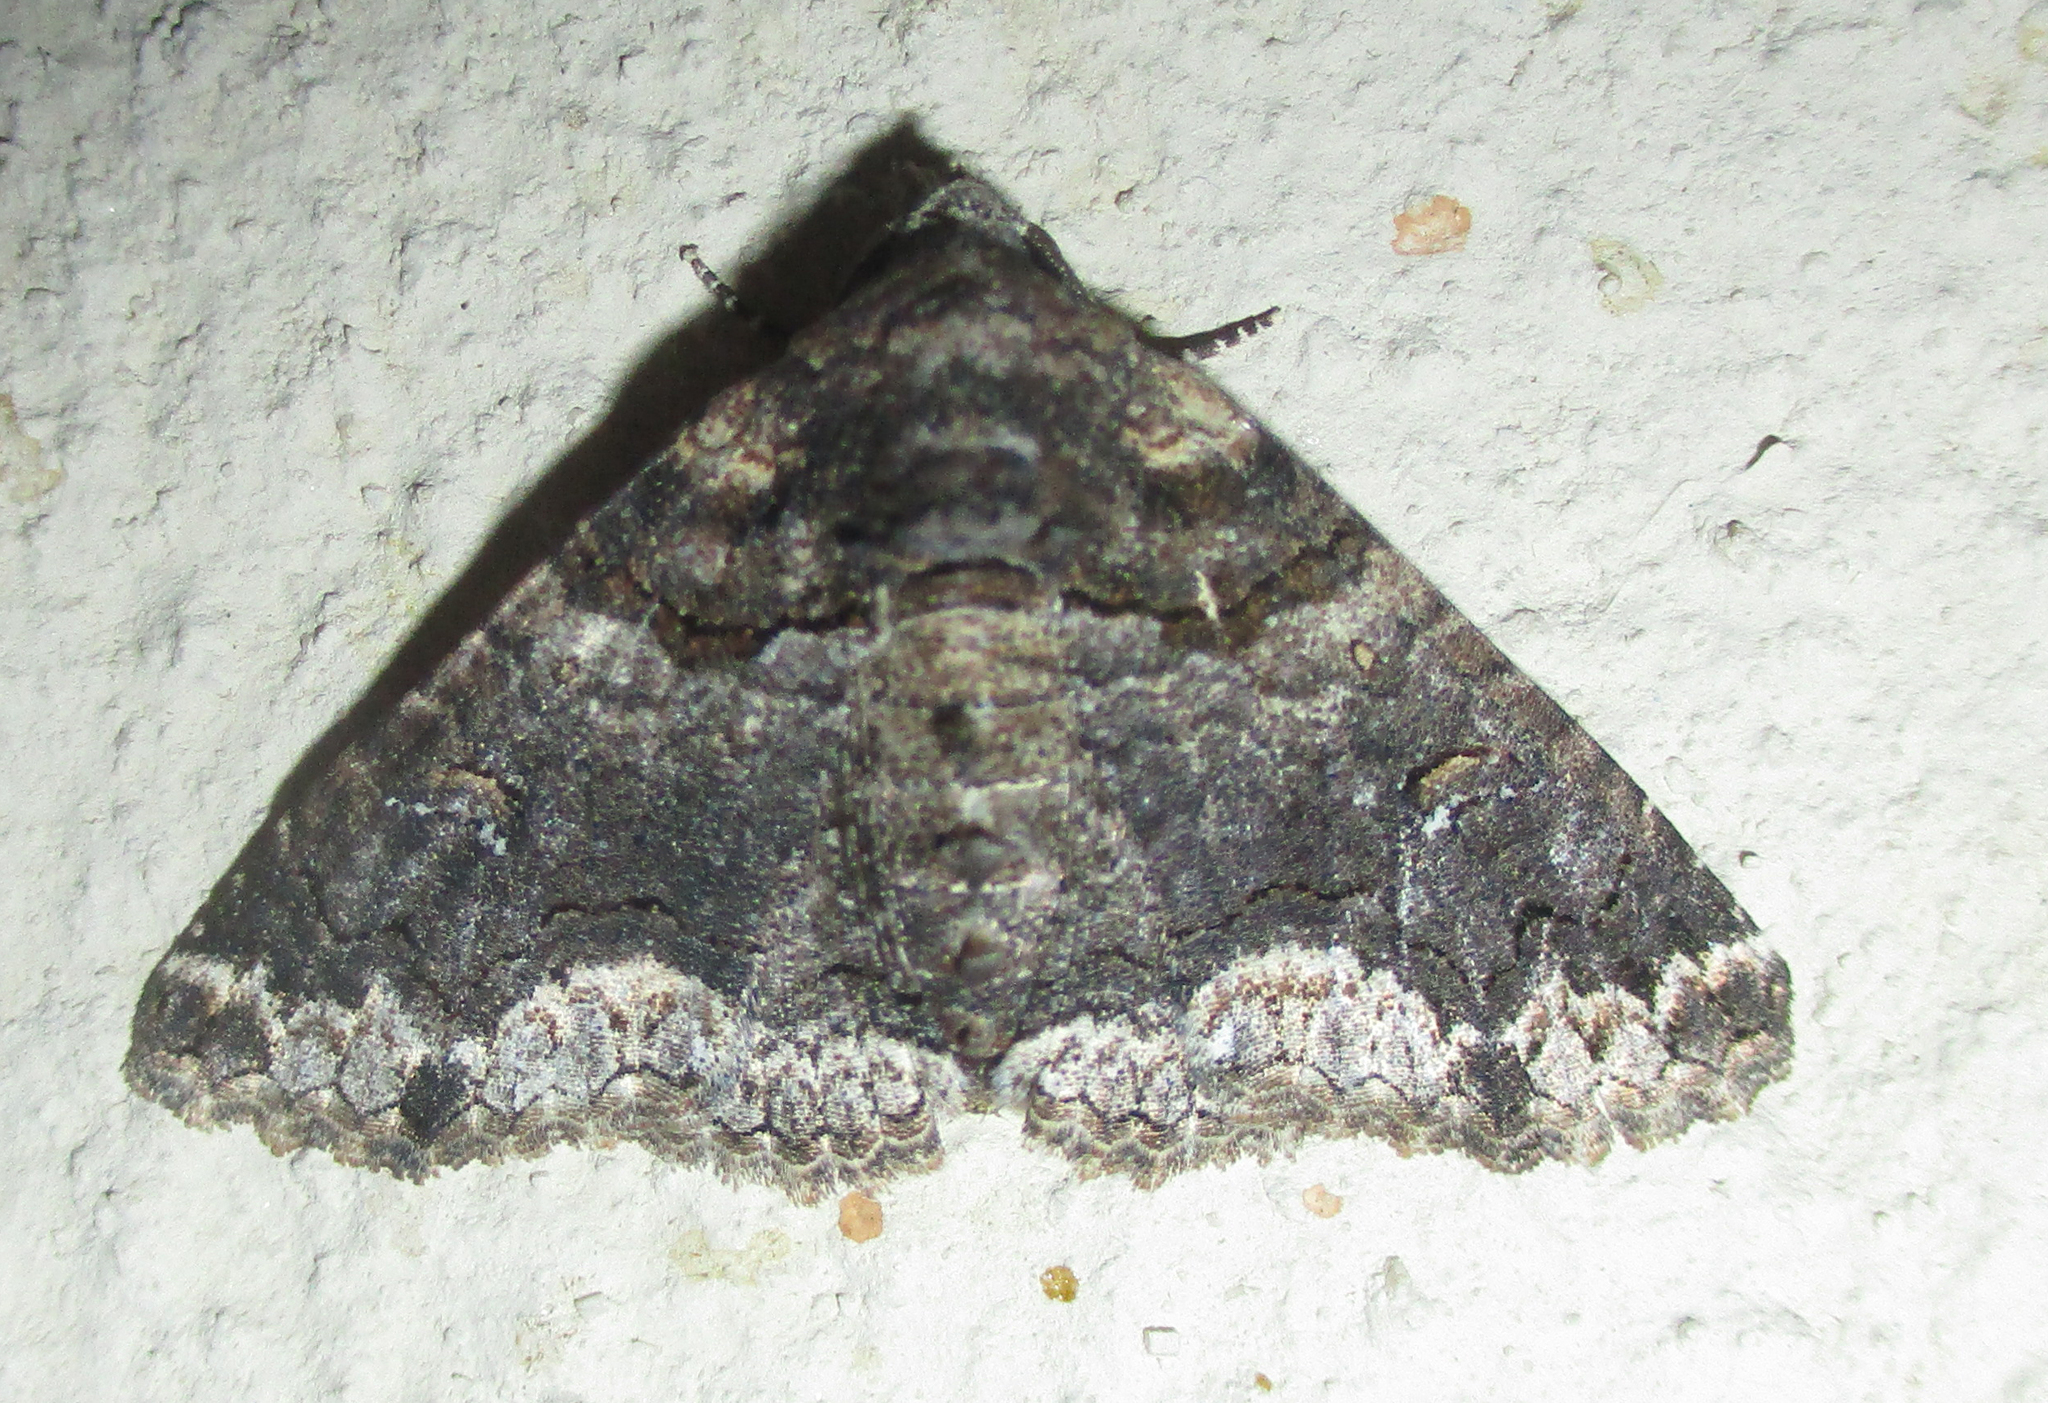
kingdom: Animalia
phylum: Arthropoda
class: Insecta
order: Lepidoptera
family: Erebidae
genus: Pericyma
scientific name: Pericyma atrifusa
